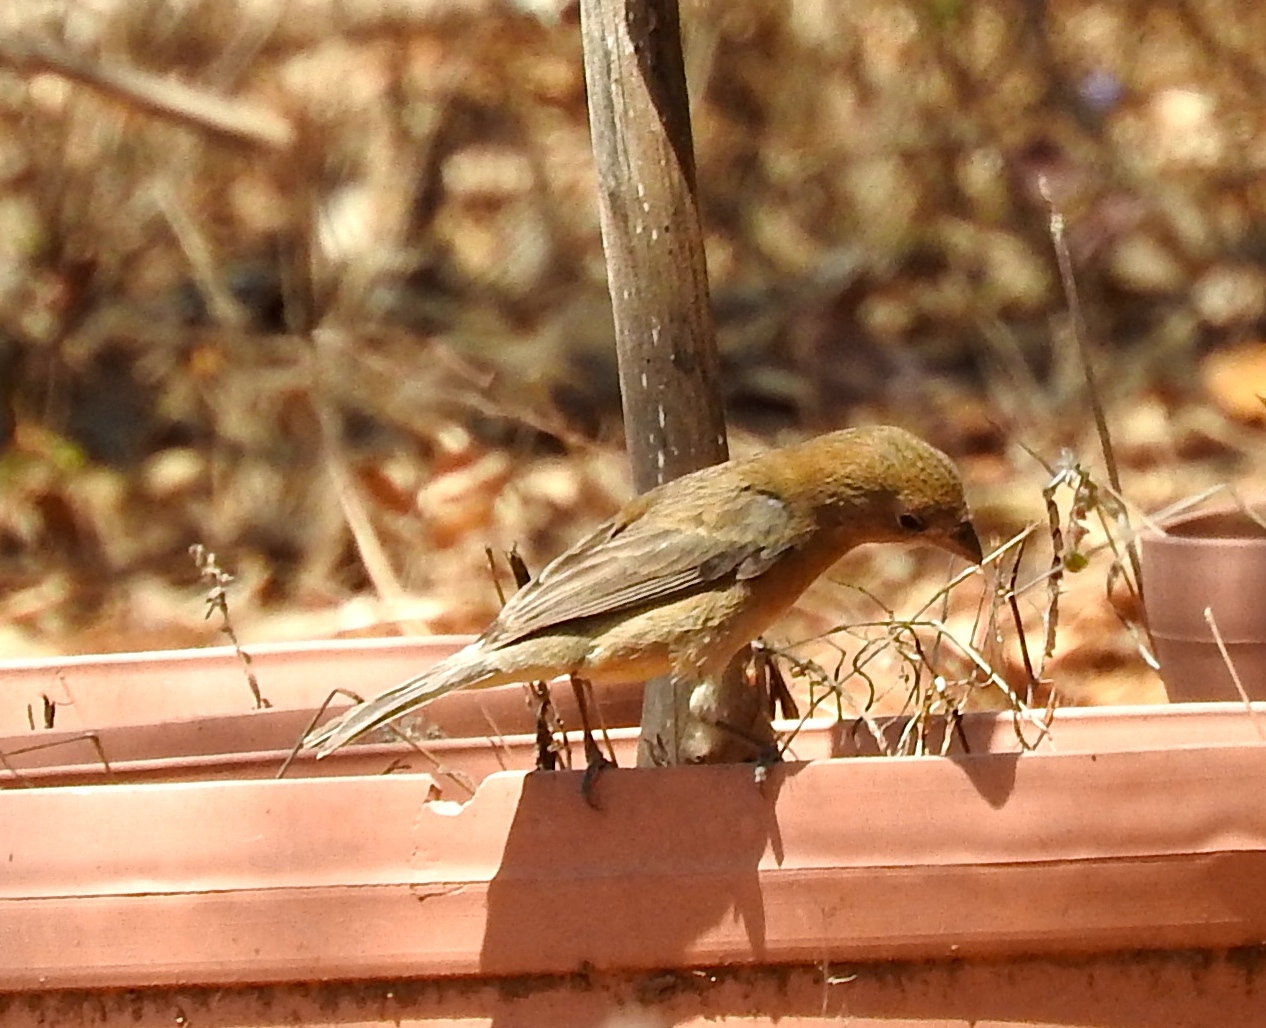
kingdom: Animalia
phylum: Chordata
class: Aves
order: Passeriformes
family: Cardinalidae
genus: Passerina
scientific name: Passerina versicolor
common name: Varied bunting
